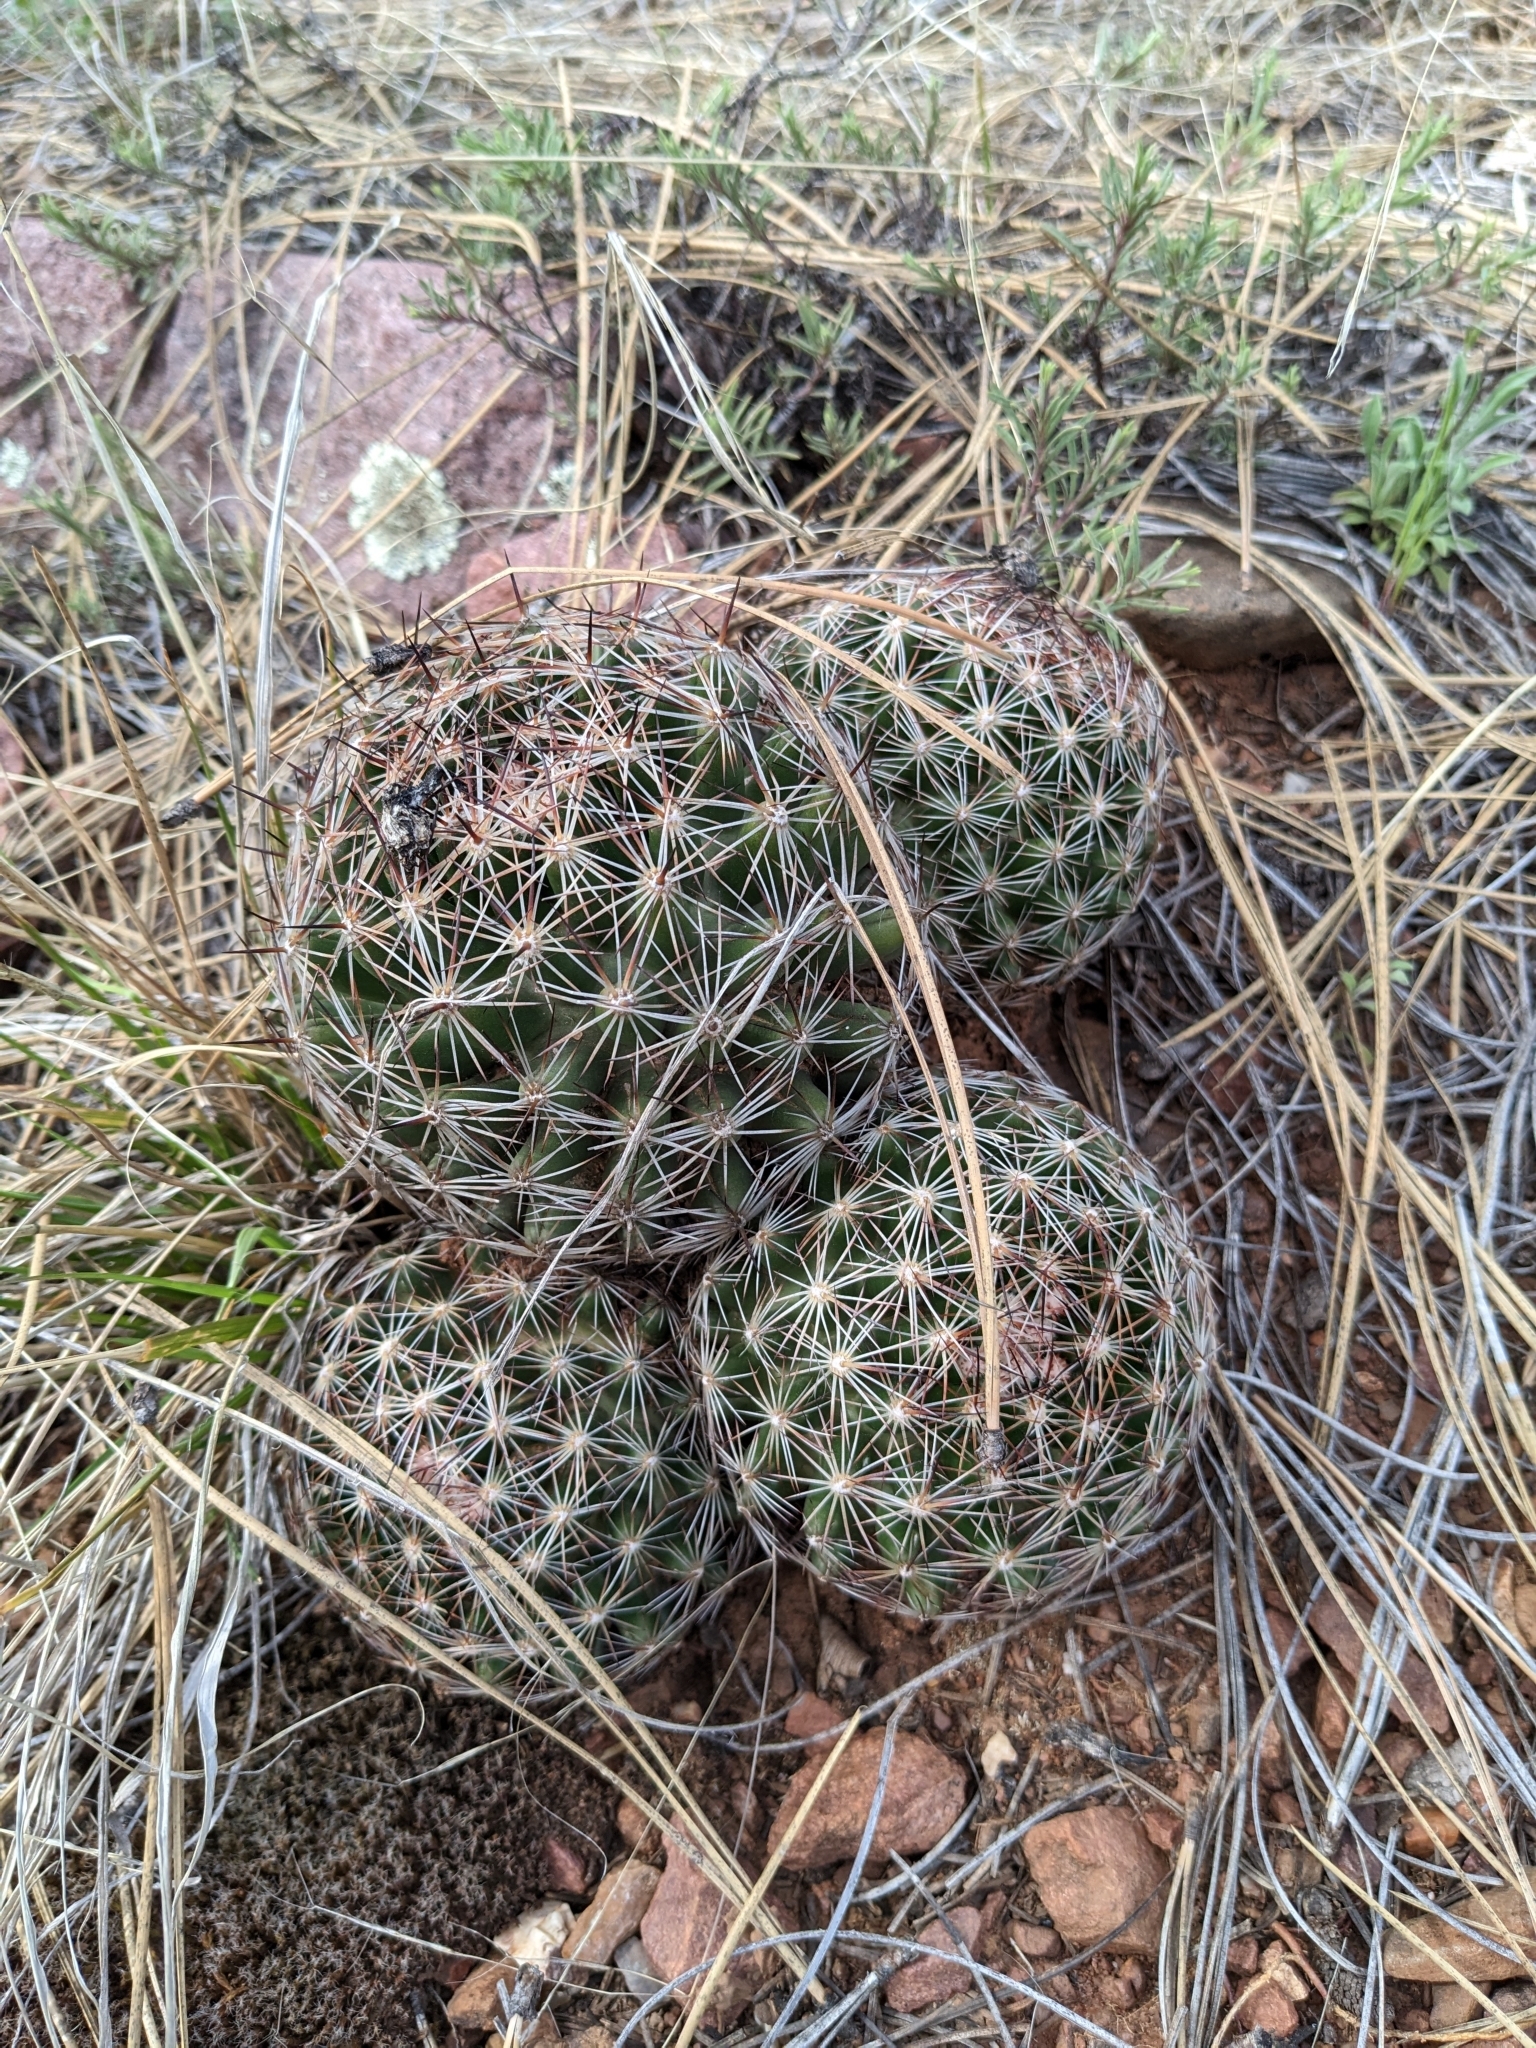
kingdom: Plantae
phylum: Tracheophyta
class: Magnoliopsida
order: Caryophyllales
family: Cactaceae
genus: Pelecyphora
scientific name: Pelecyphora vivipara
